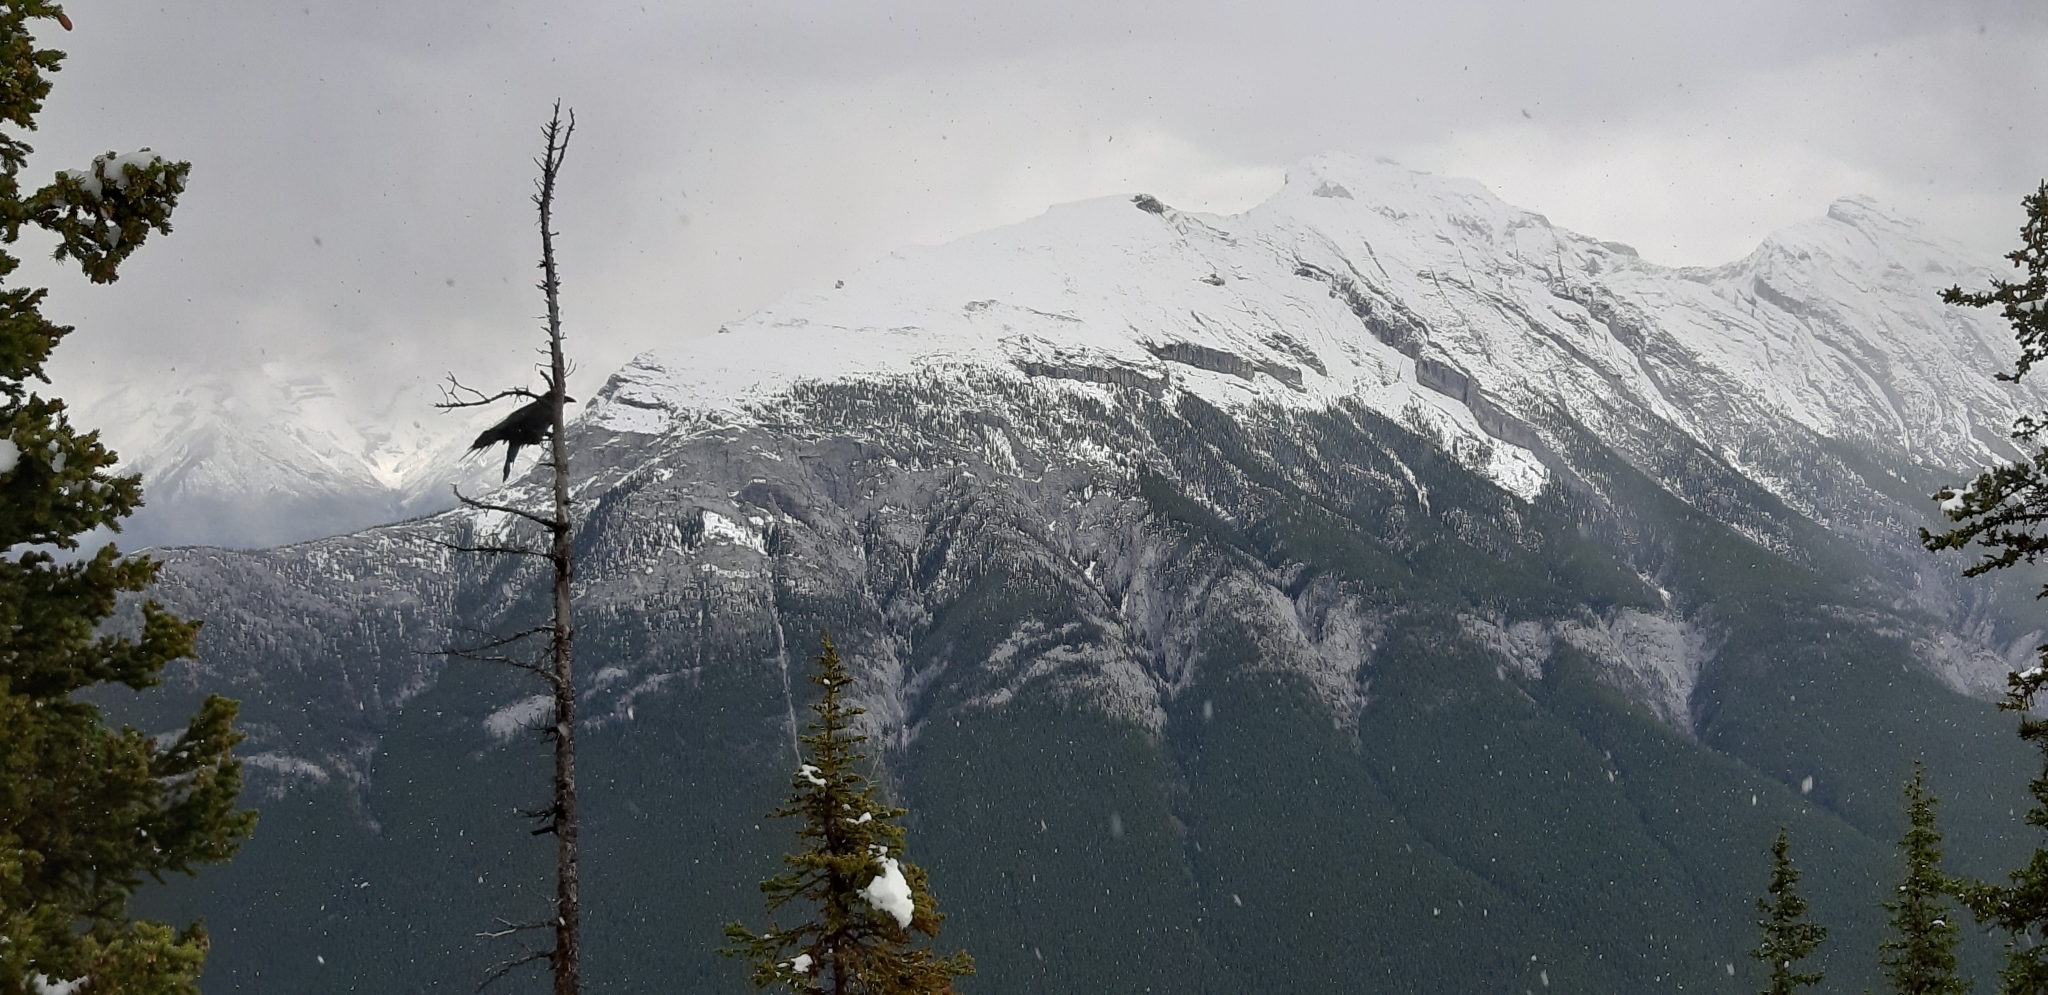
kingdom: Animalia
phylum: Chordata
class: Aves
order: Passeriformes
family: Corvidae
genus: Corvus
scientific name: Corvus corax
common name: Common raven
